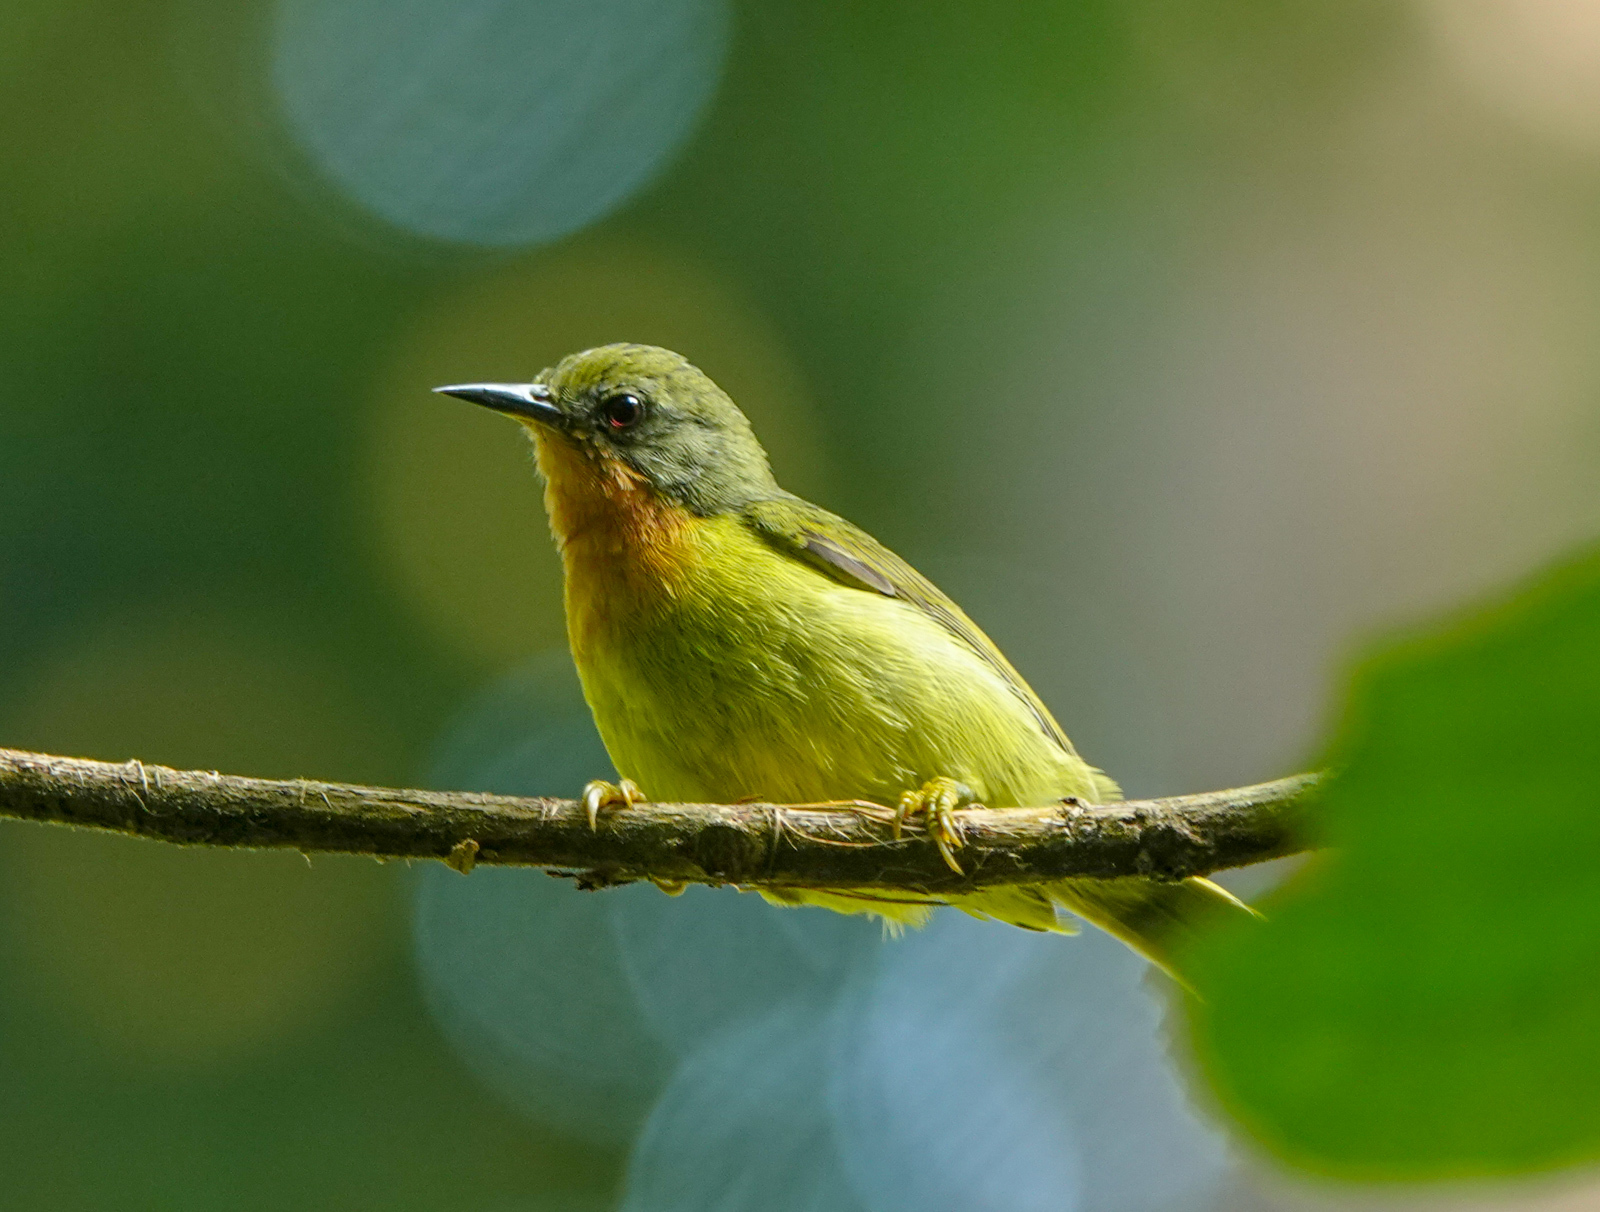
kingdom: Animalia
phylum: Chordata
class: Aves
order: Passeriformes
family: Nectariniidae
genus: Chalcoparia
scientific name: Chalcoparia singalensis
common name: Ruby-cheeked sunbird
